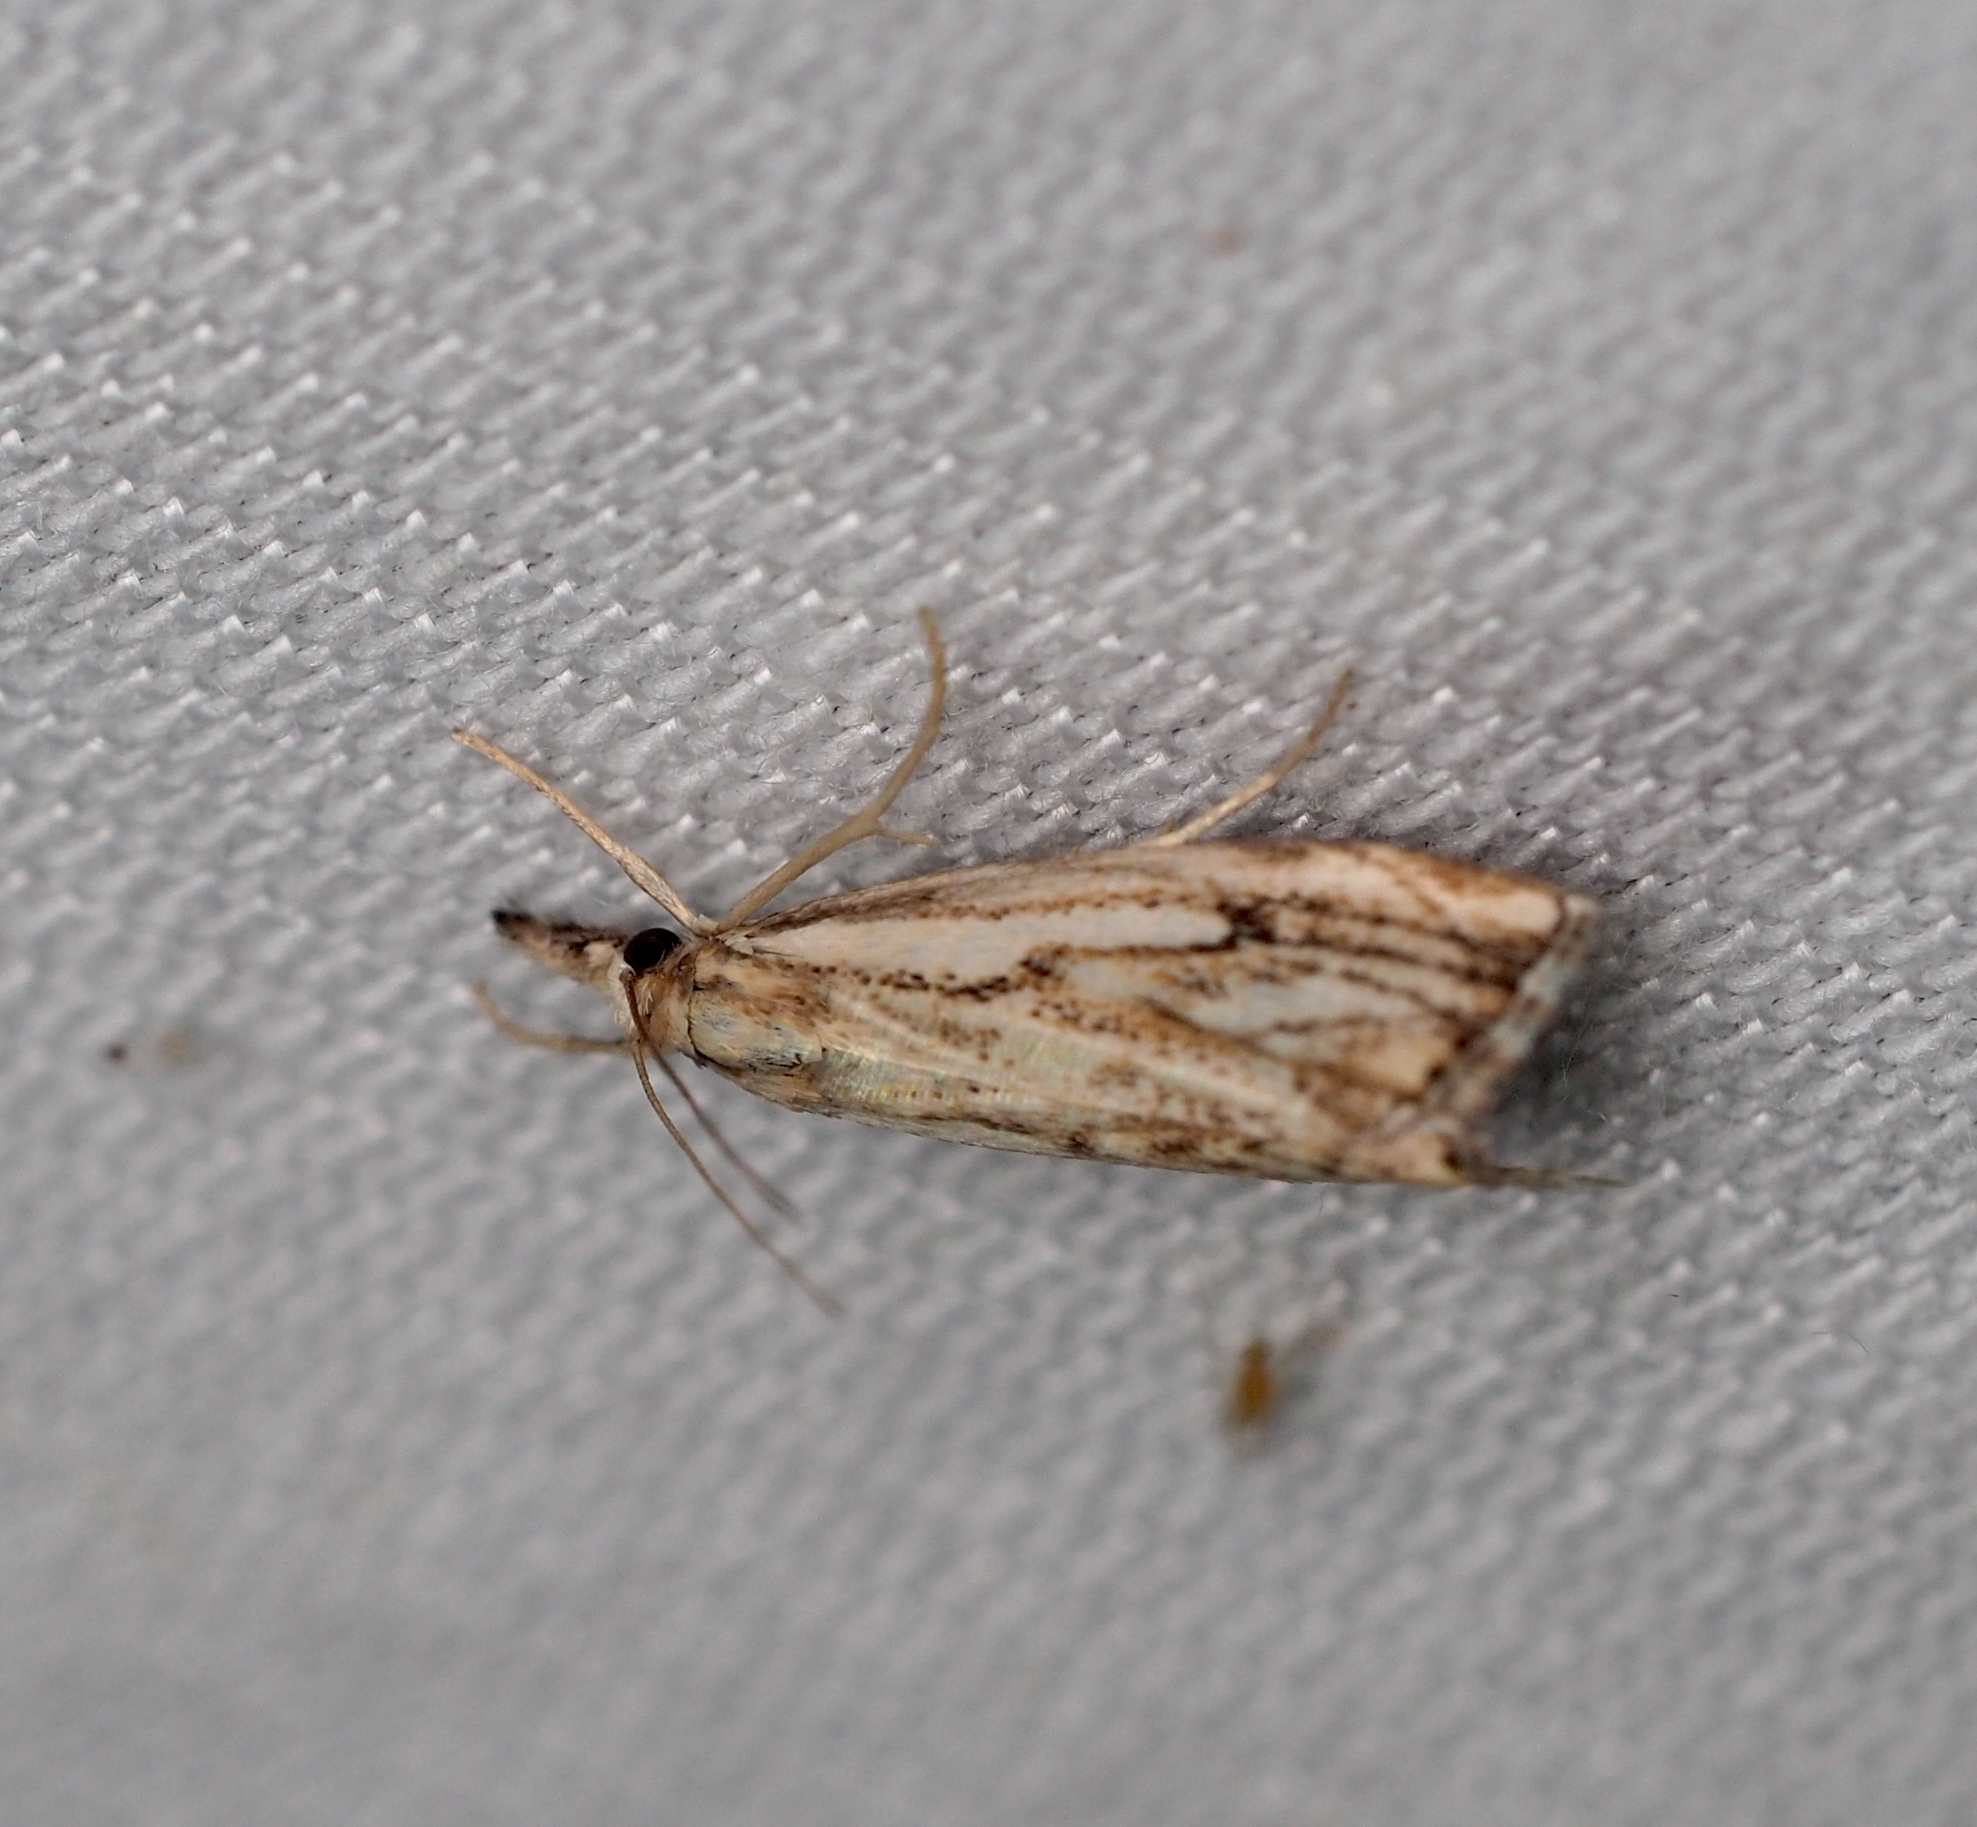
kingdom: Animalia
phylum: Arthropoda
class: Insecta
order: Lepidoptera
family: Crambidae
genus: Catoptria
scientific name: Catoptria falsella
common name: Chequered grass-veneer
